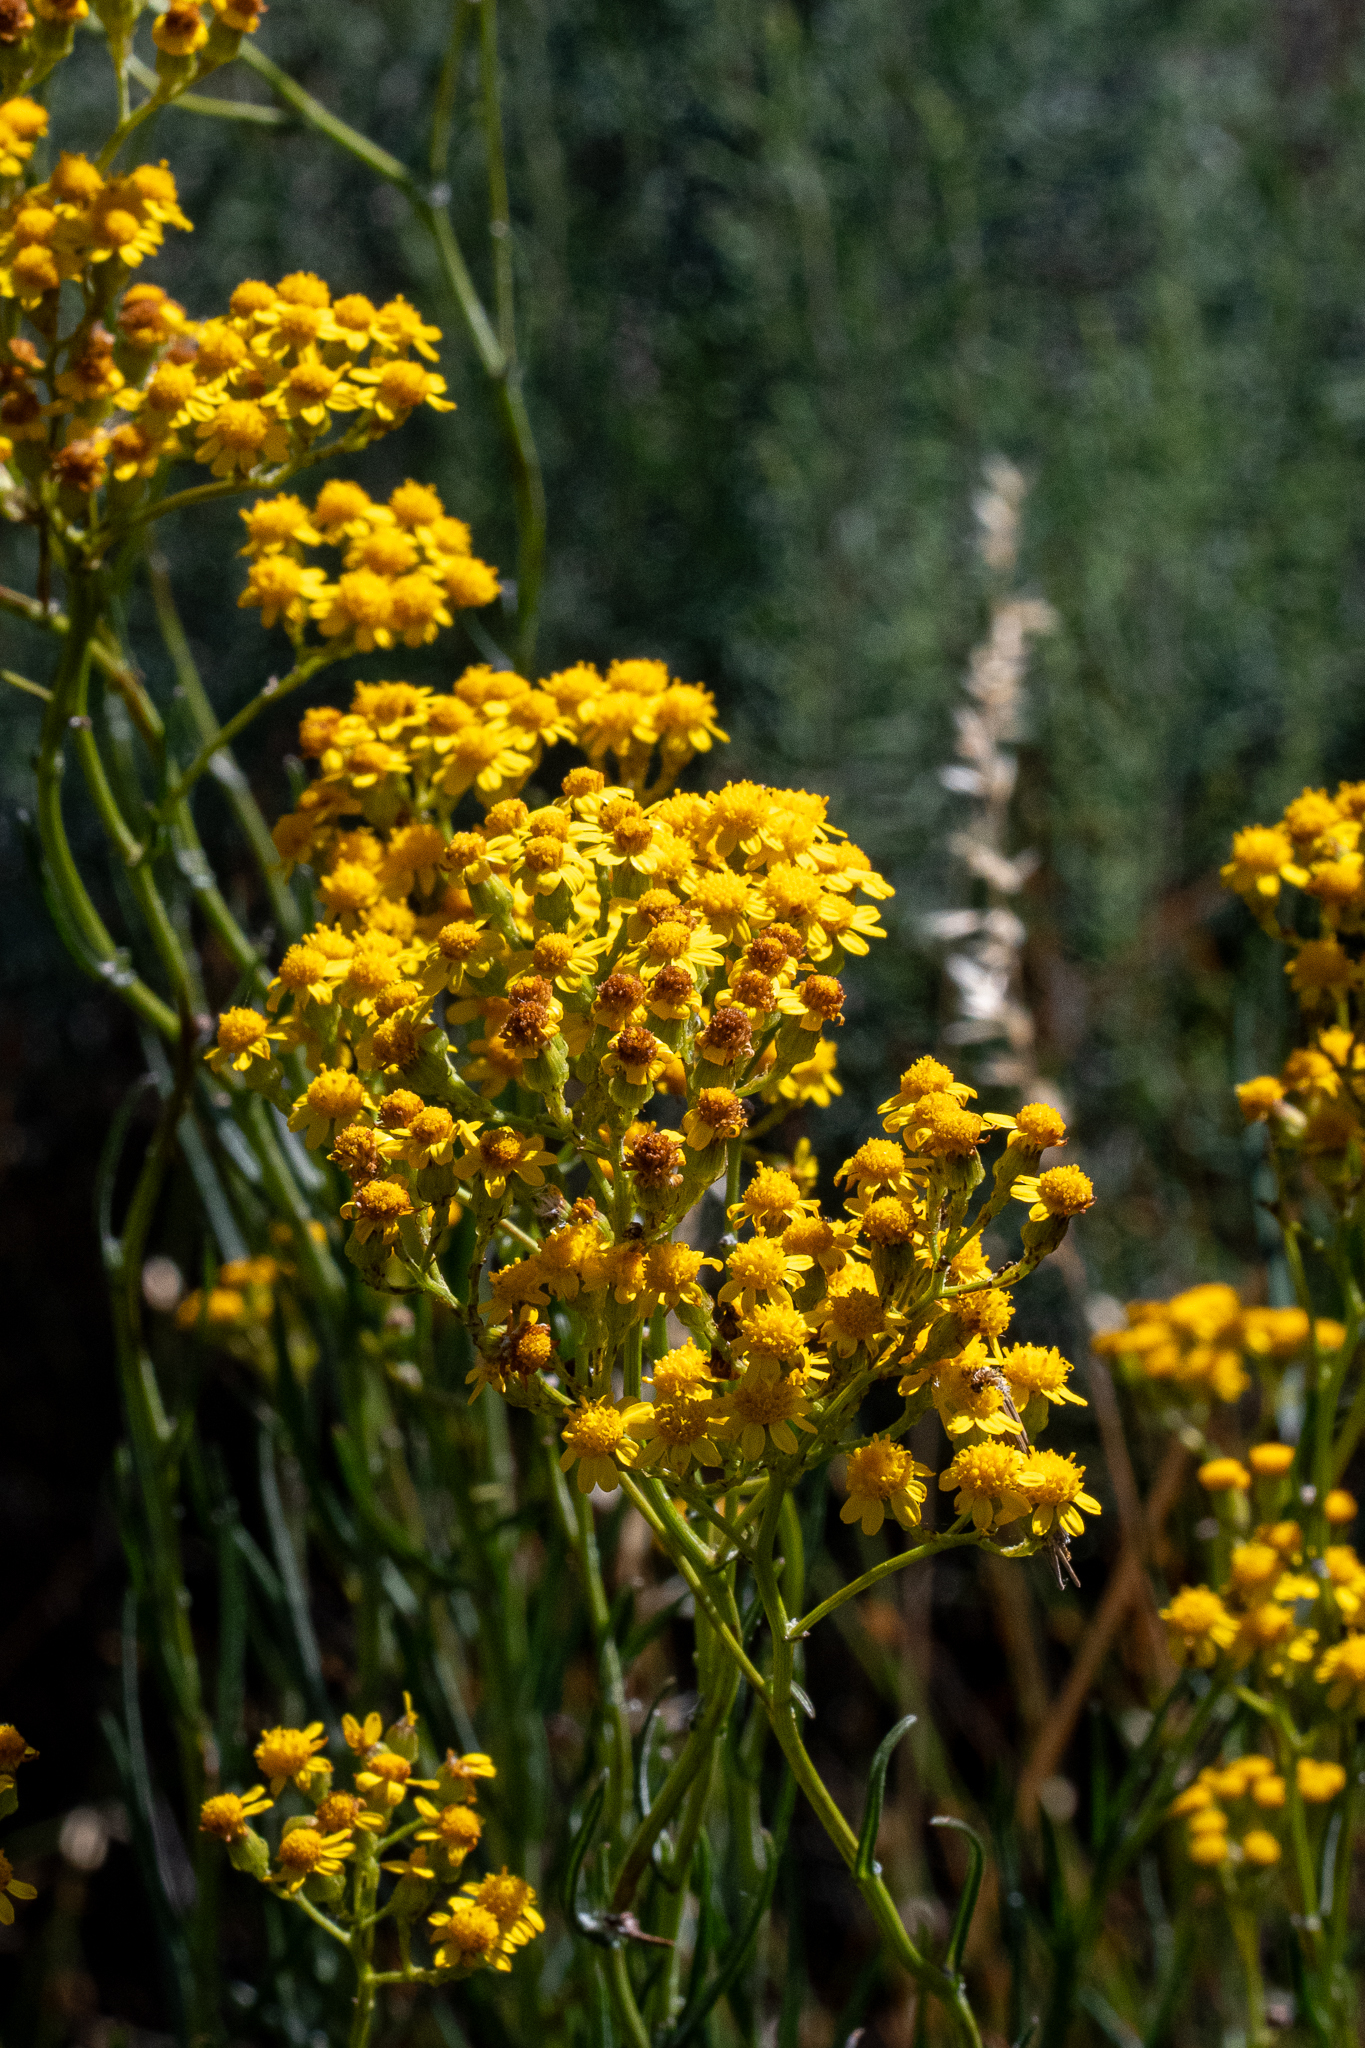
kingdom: Plantae
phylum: Tracheophyta
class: Magnoliopsida
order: Asterales
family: Asteraceae
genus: Senecio
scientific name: Senecio burchellii
